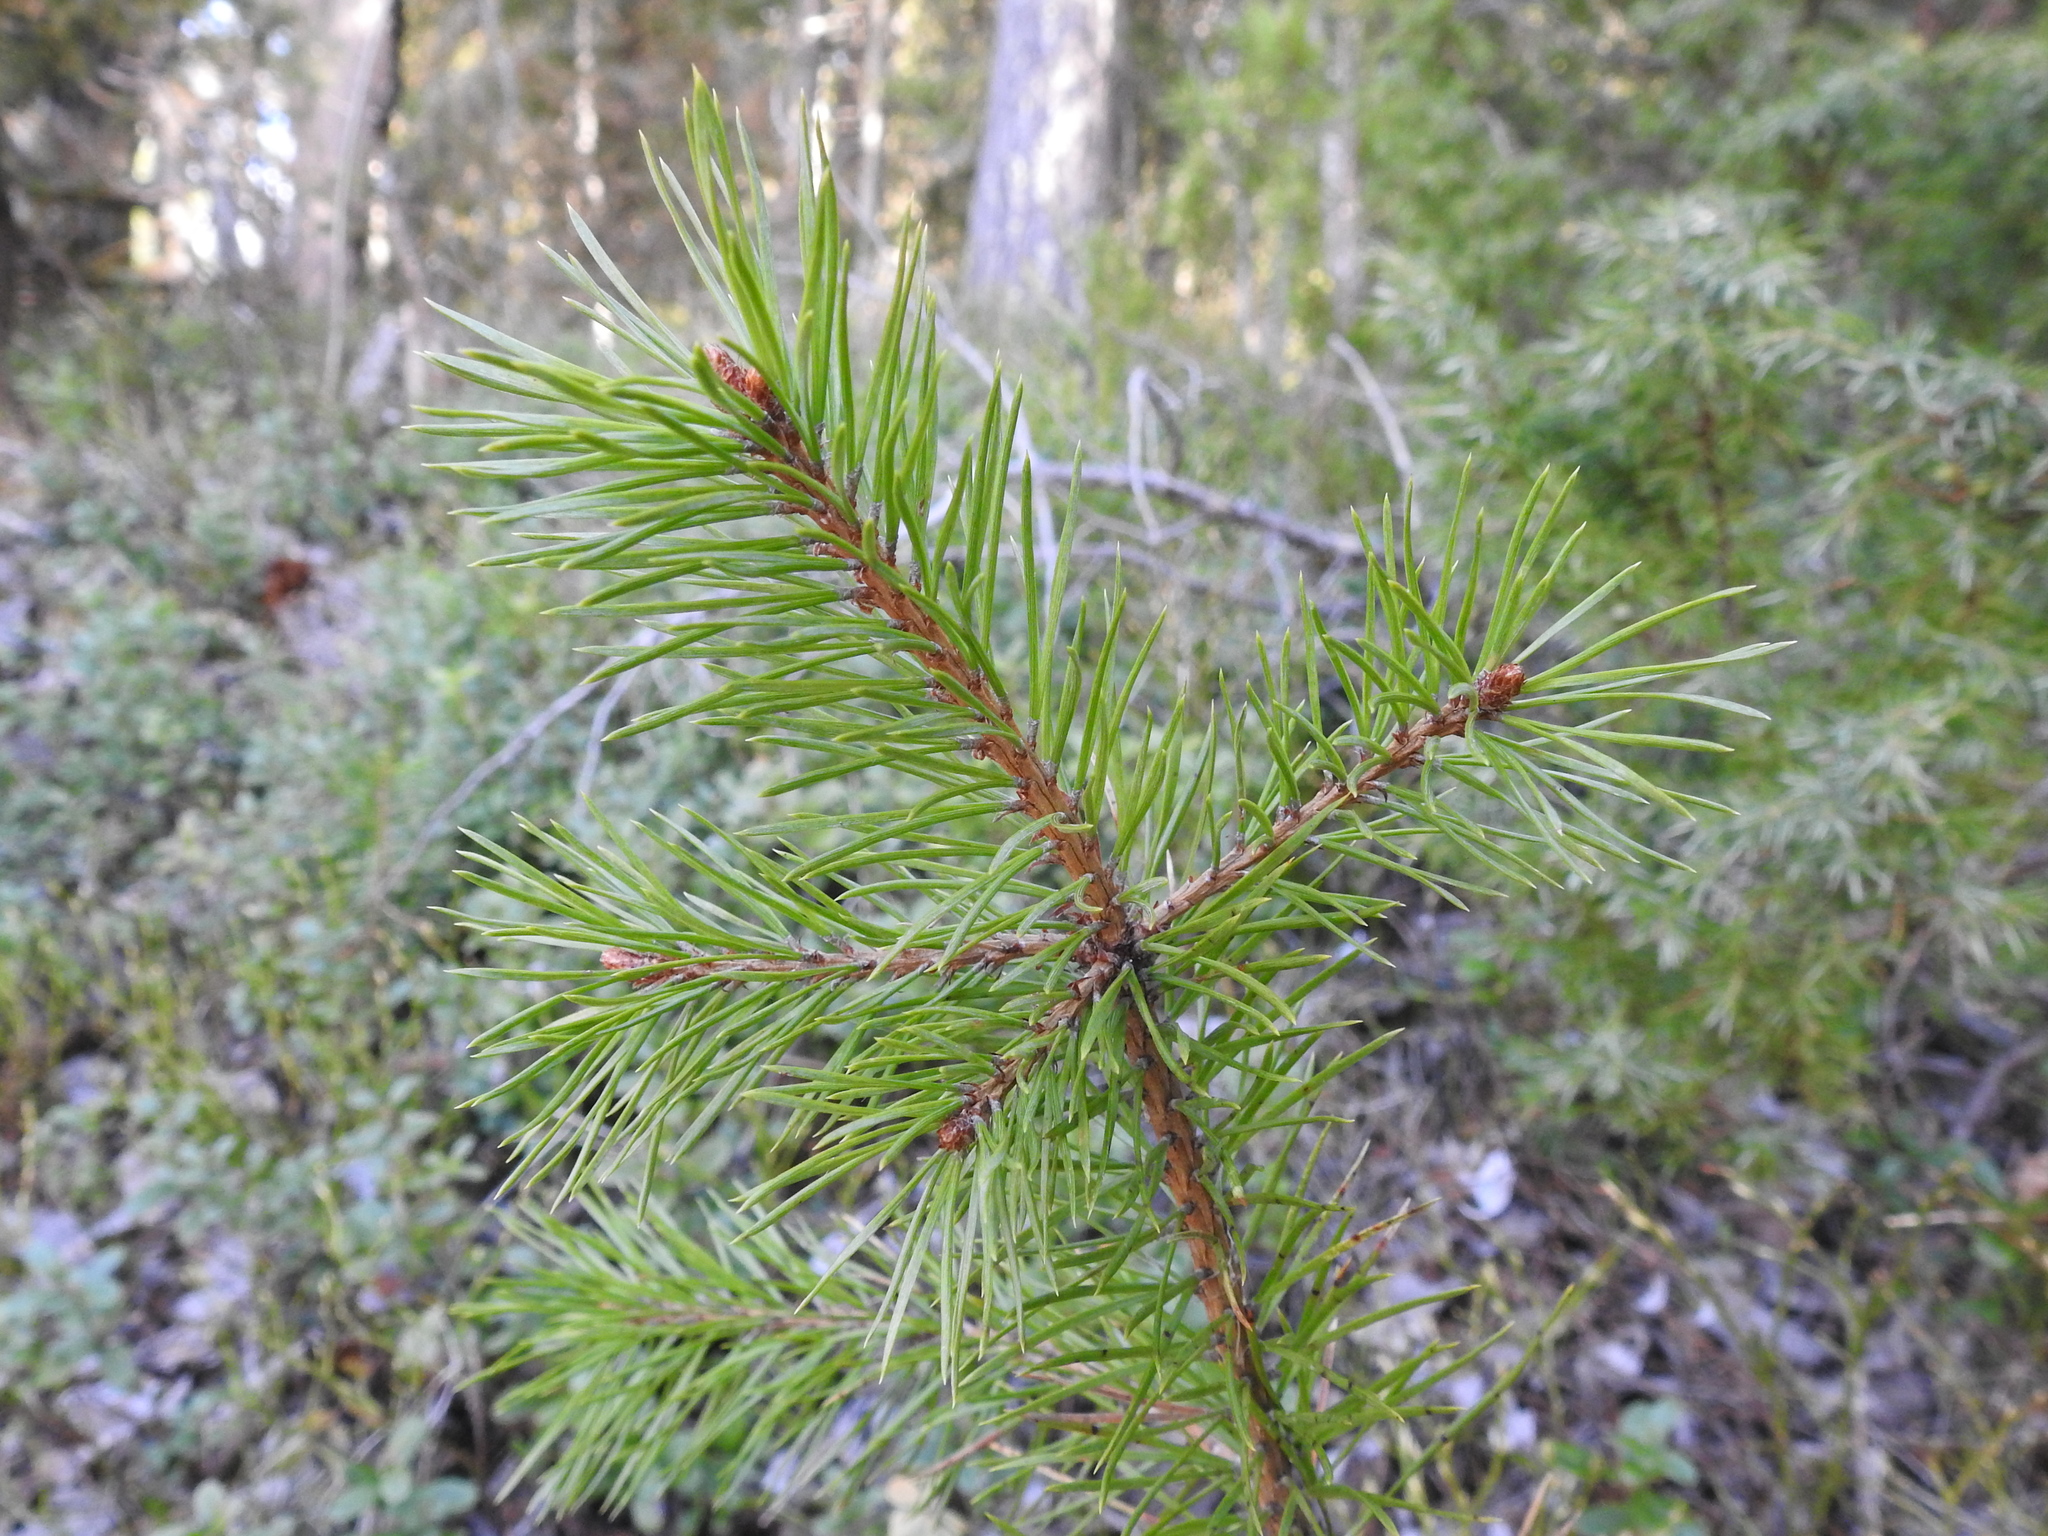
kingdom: Plantae
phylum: Tracheophyta
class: Pinopsida
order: Pinales
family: Pinaceae
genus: Pinus
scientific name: Pinus sylvestris
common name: Scots pine
